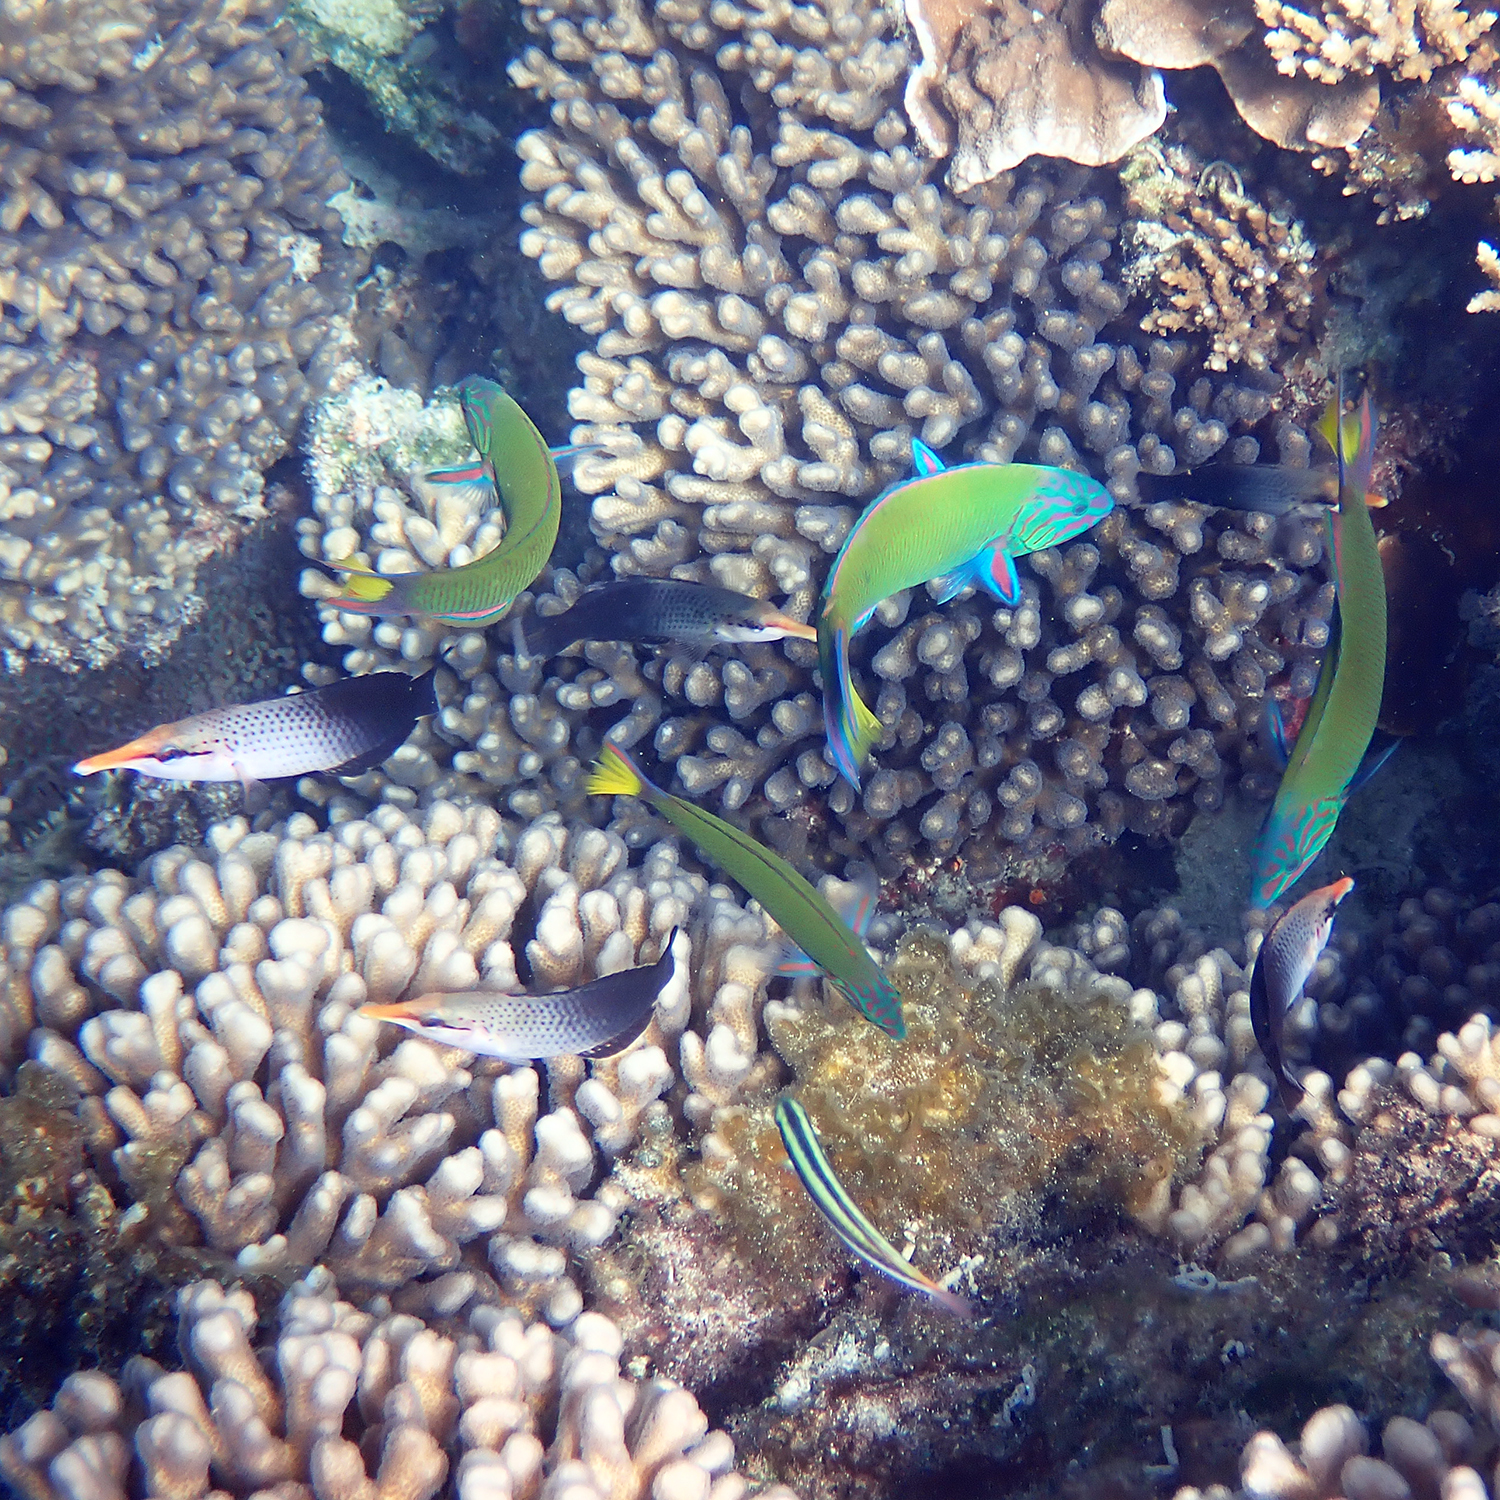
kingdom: Animalia
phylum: Chordata
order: Perciformes
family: Labridae
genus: Thalassoma
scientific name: Thalassoma lunare
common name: Blue wrasse
